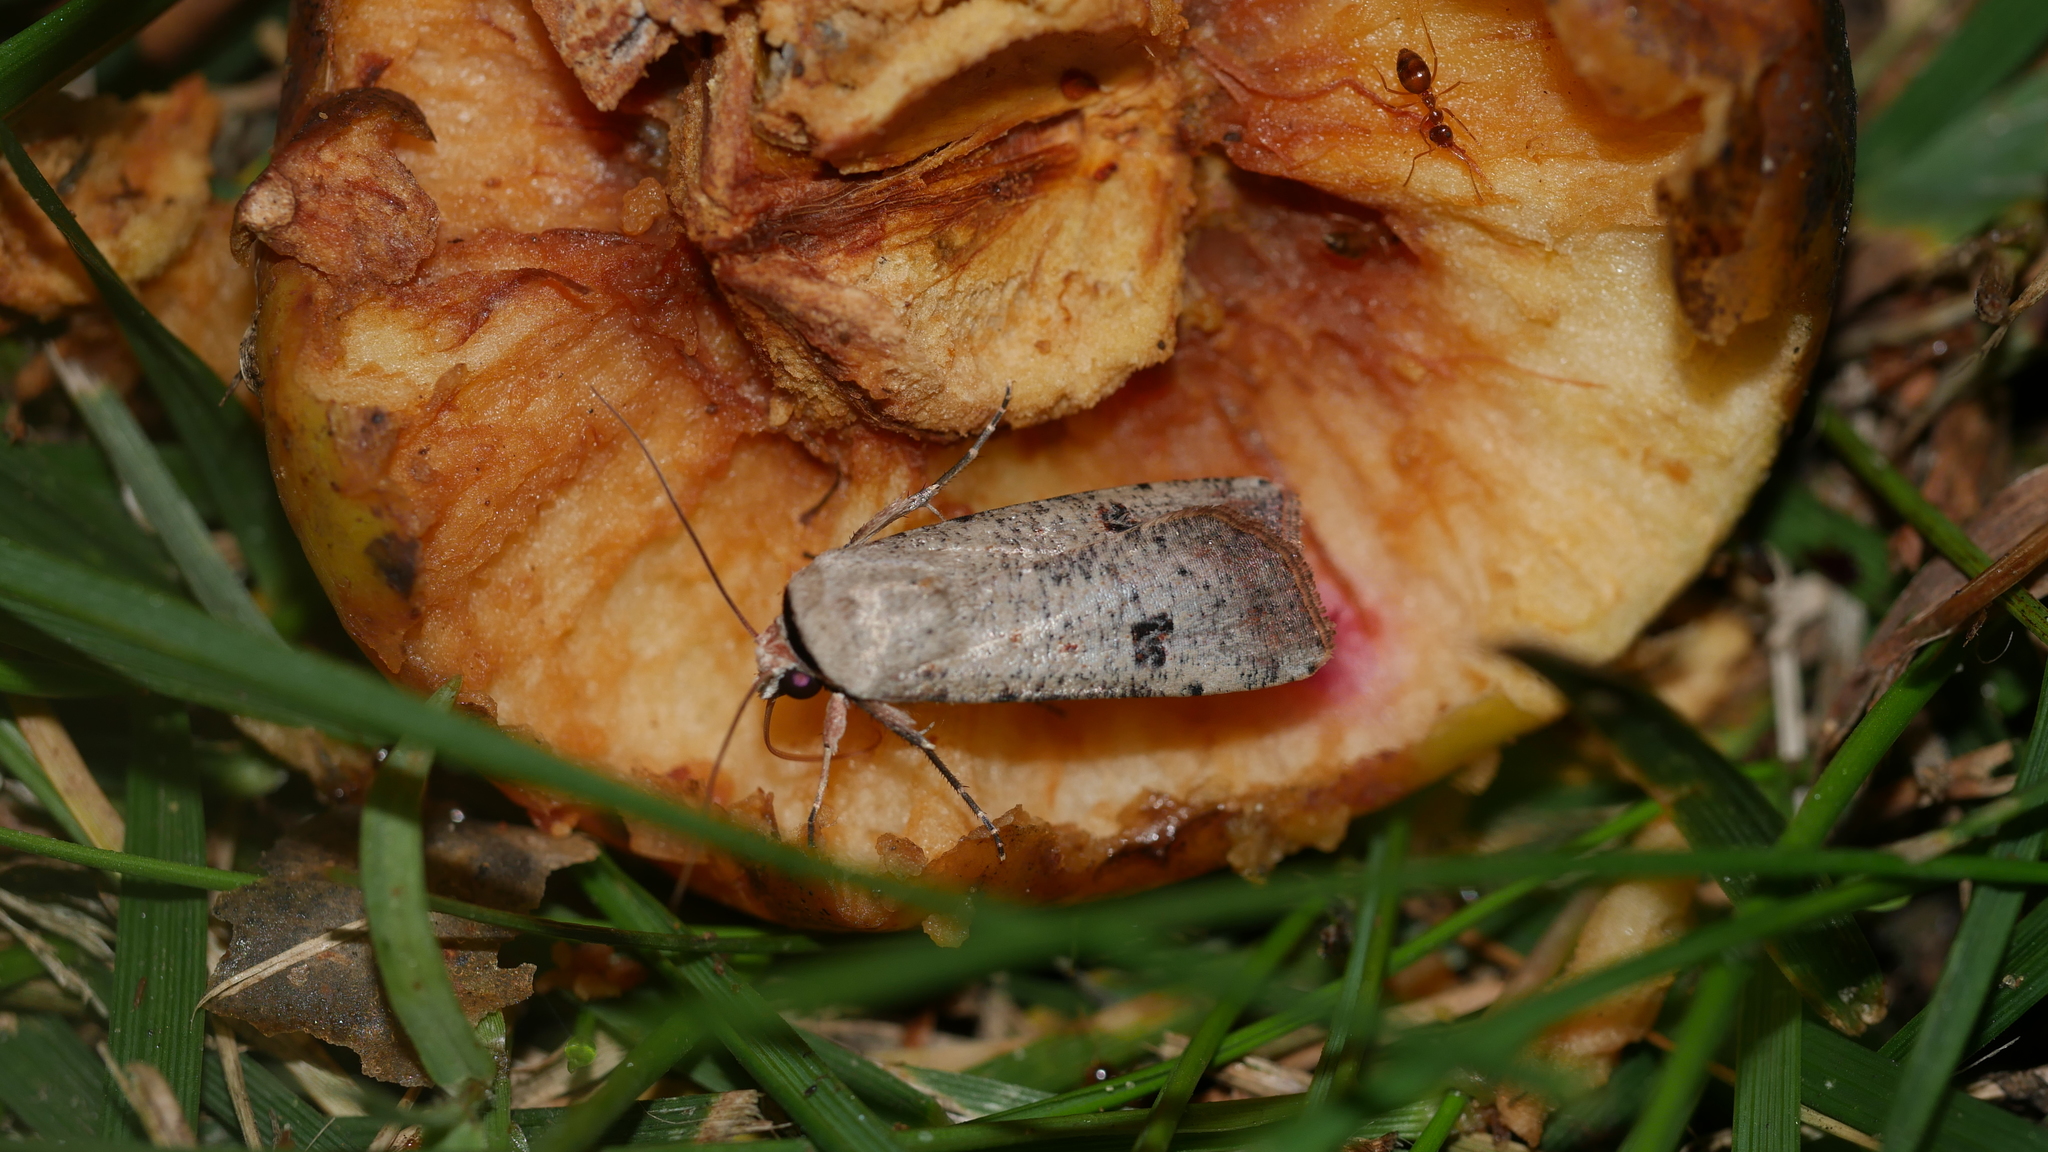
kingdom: Animalia
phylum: Arthropoda
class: Insecta
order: Lepidoptera
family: Noctuidae
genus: Anicla
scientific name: Anicla infecta
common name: Green cutworm
